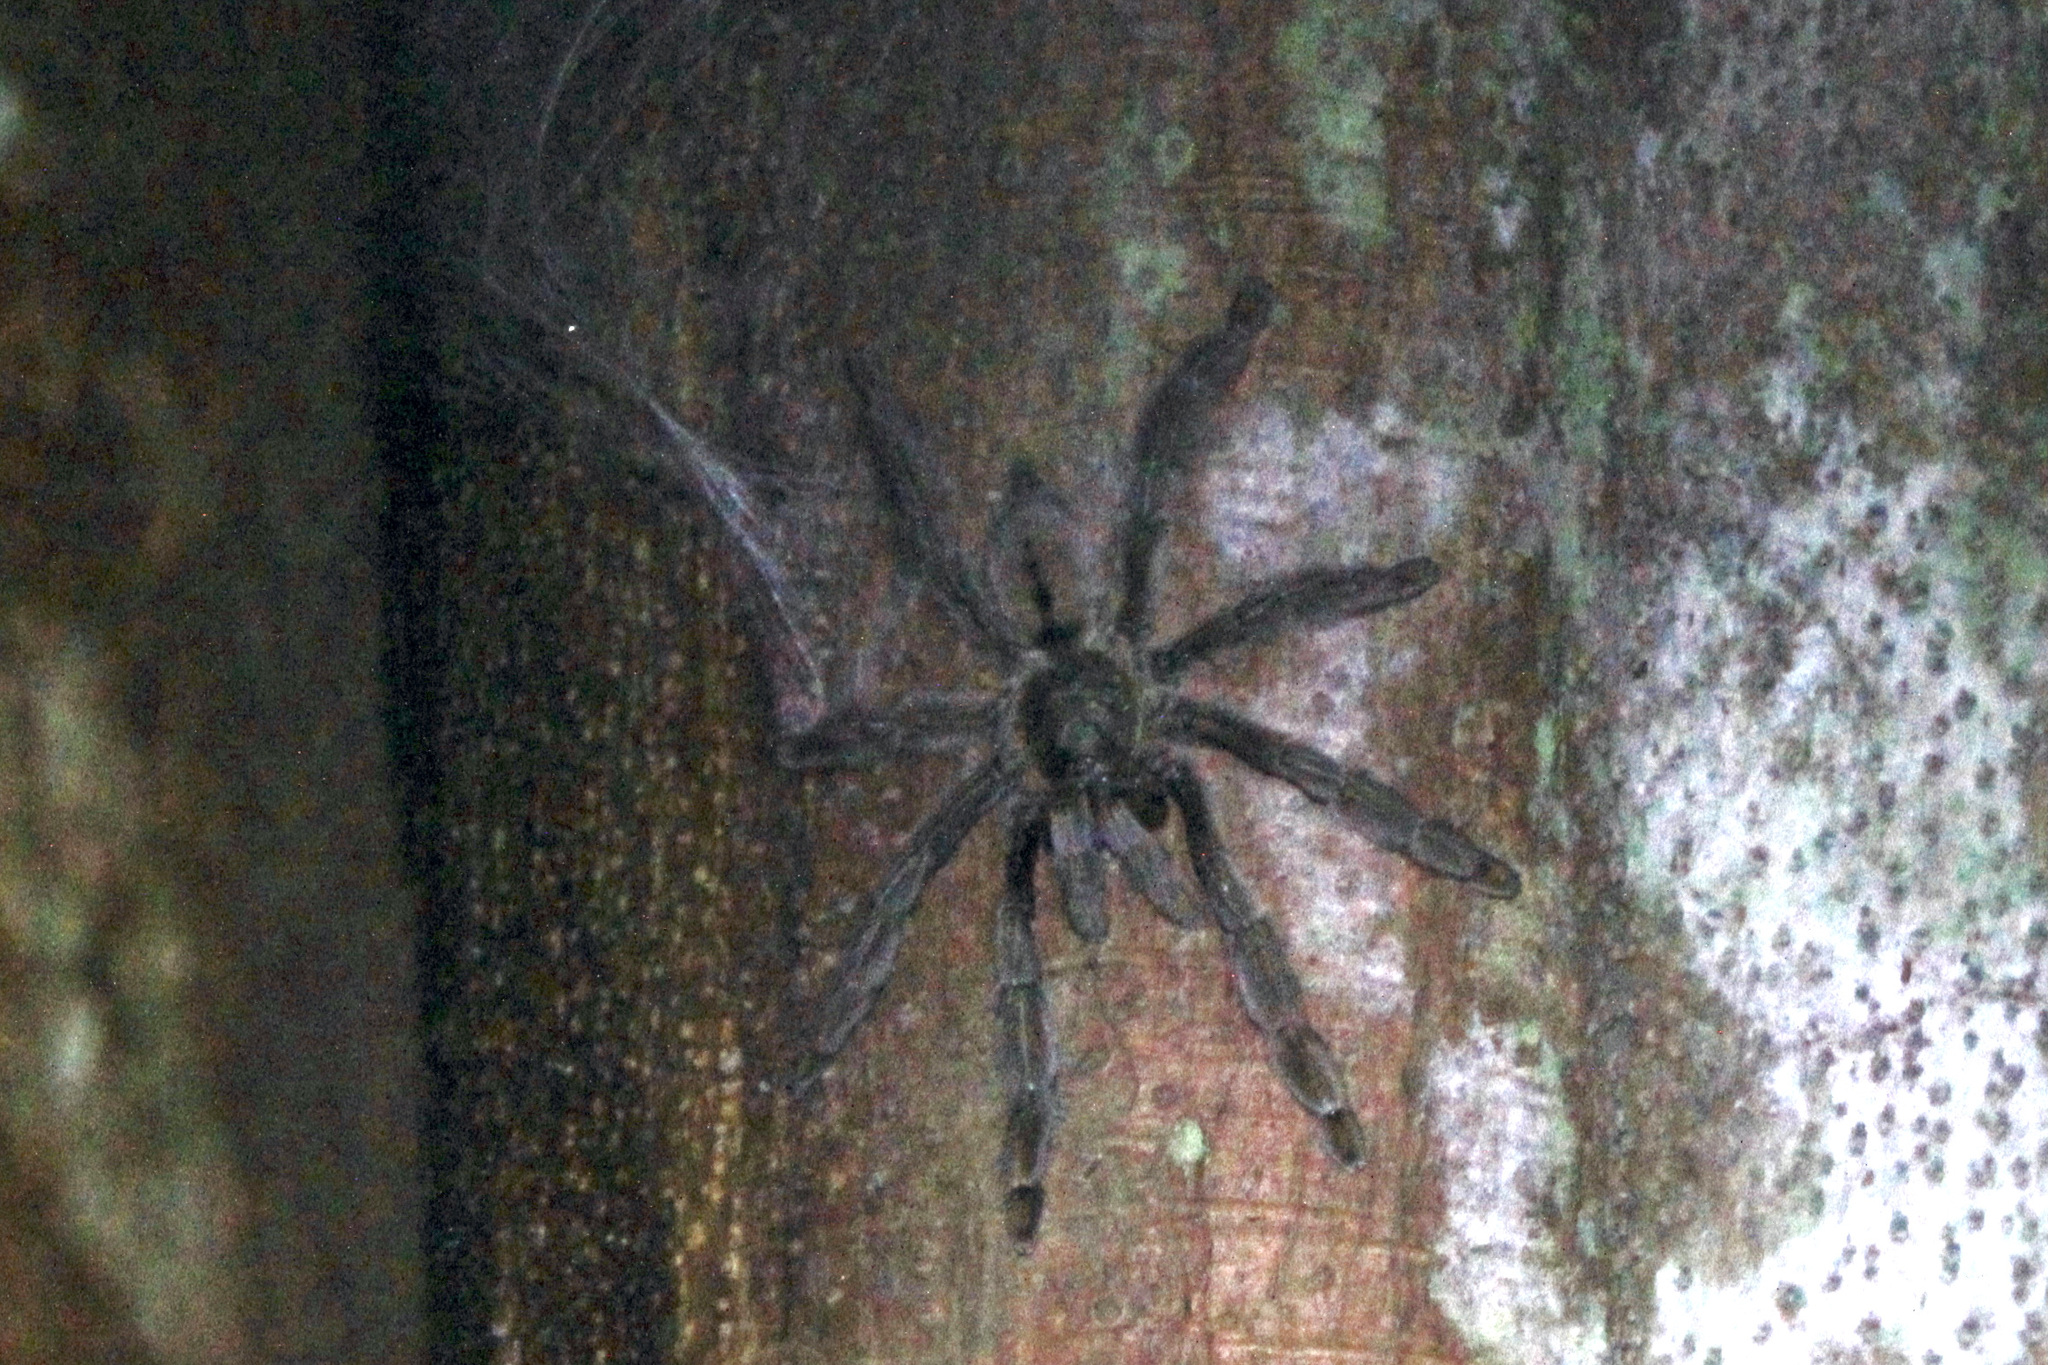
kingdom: Animalia
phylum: Arthropoda
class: Arachnida
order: Araneae
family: Theraphosidae
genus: Psalmopoeus
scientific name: Psalmopoeus cambridgei
